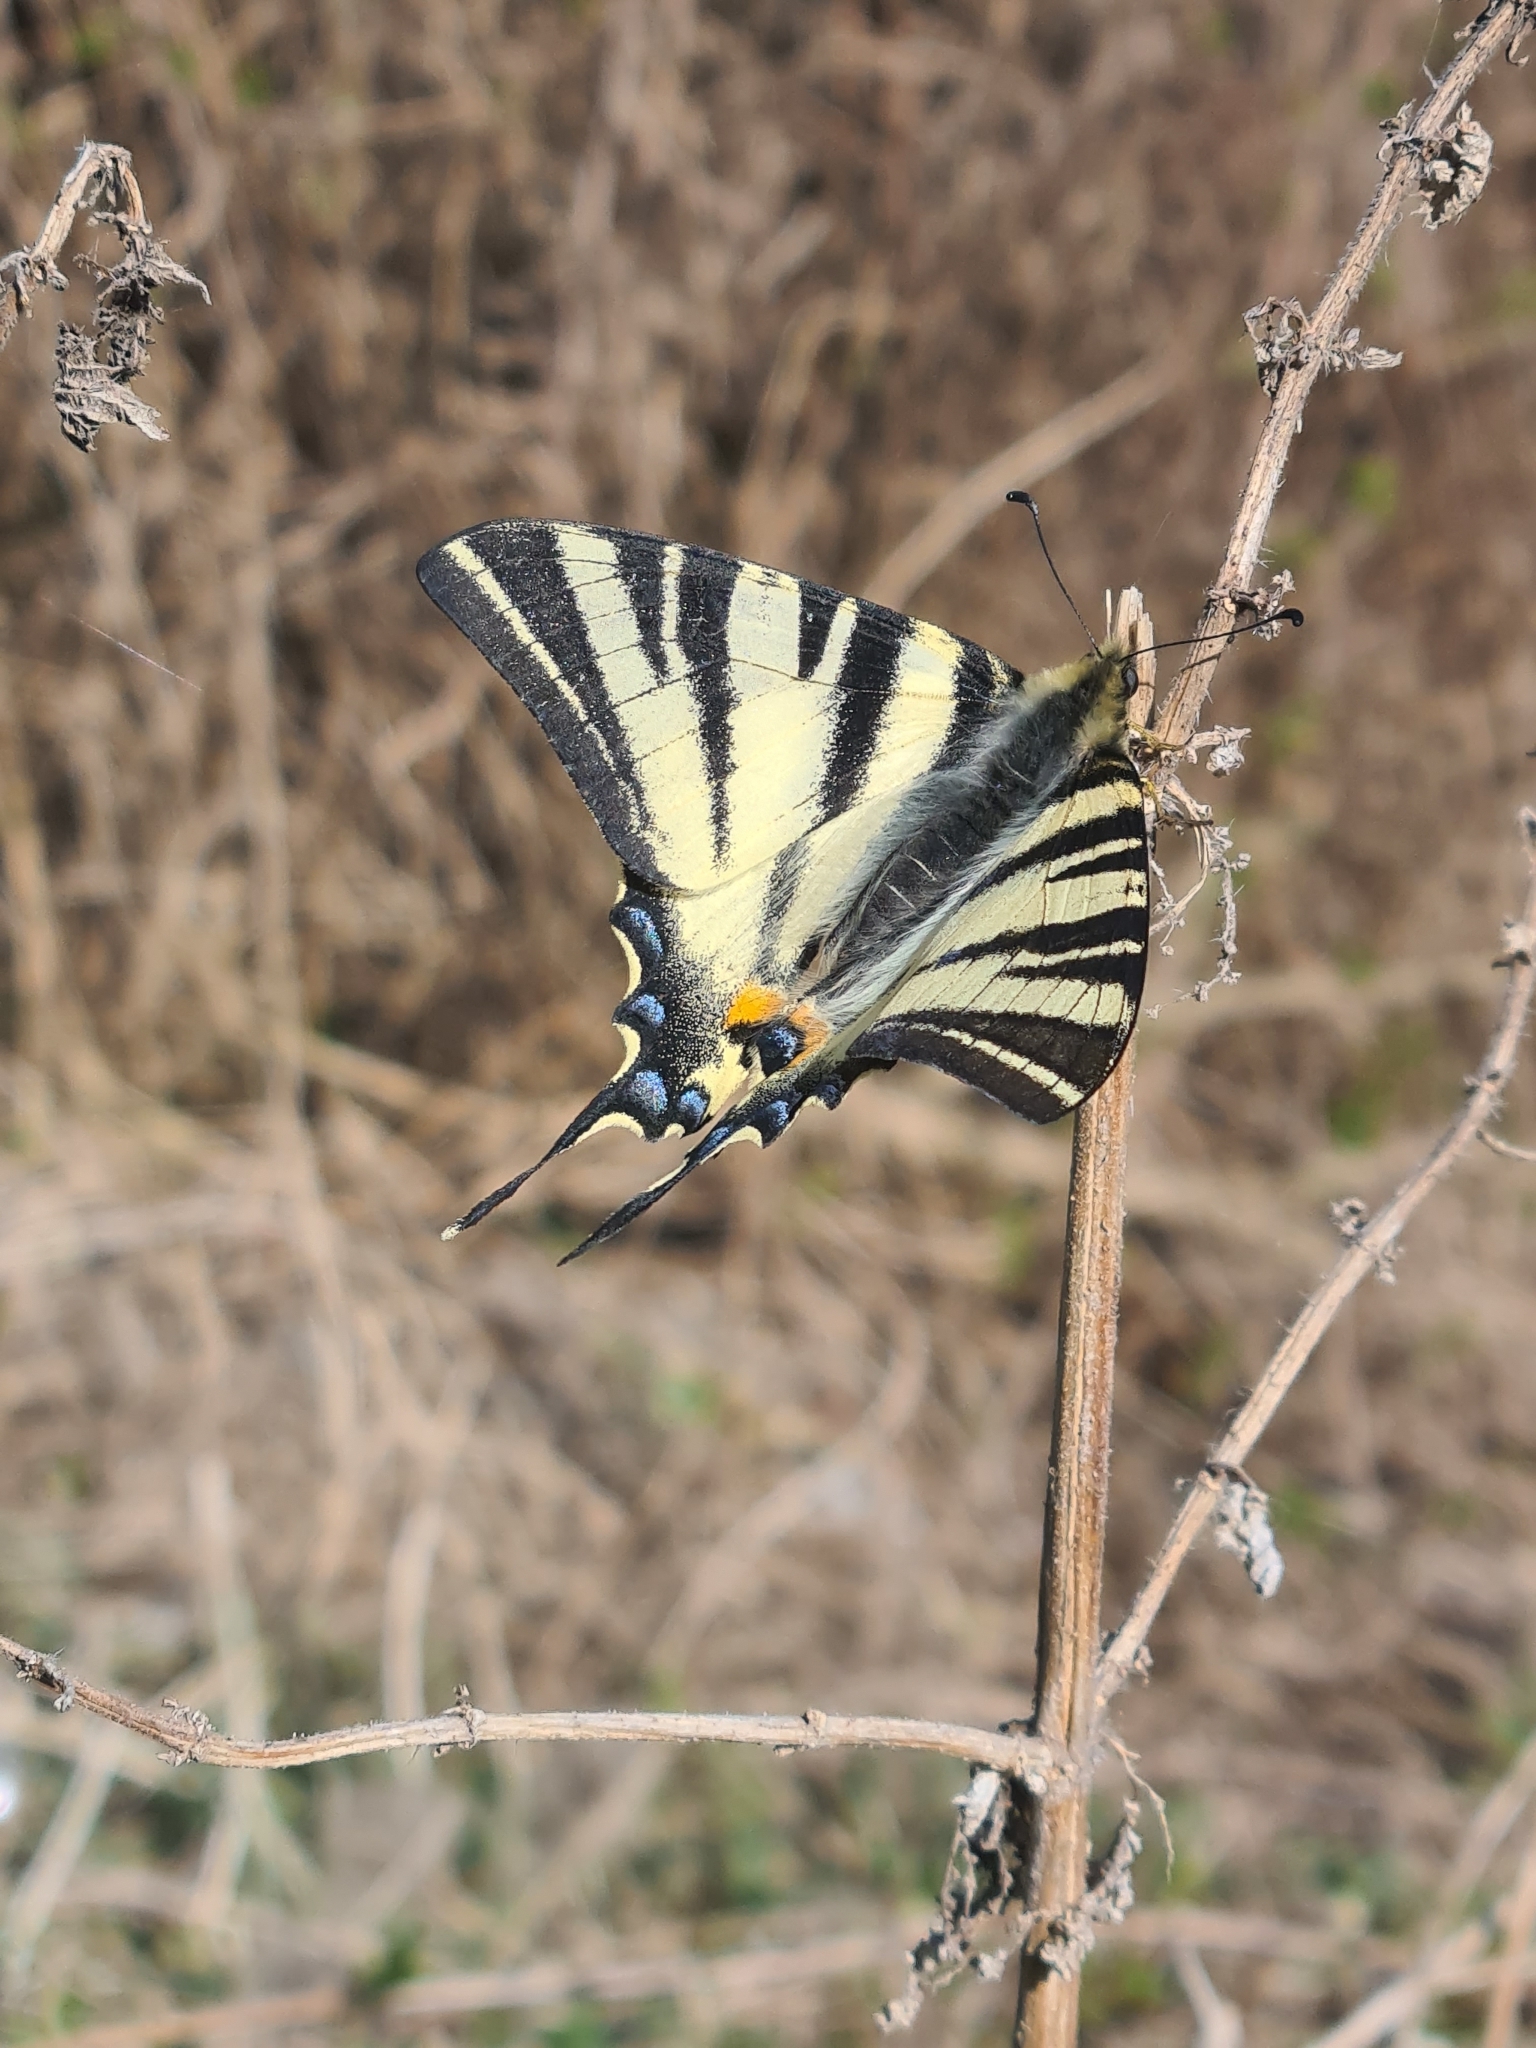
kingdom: Animalia
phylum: Arthropoda
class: Insecta
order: Lepidoptera
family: Papilionidae
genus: Iphiclides
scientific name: Iphiclides podalirius
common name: Scarce swallowtail
